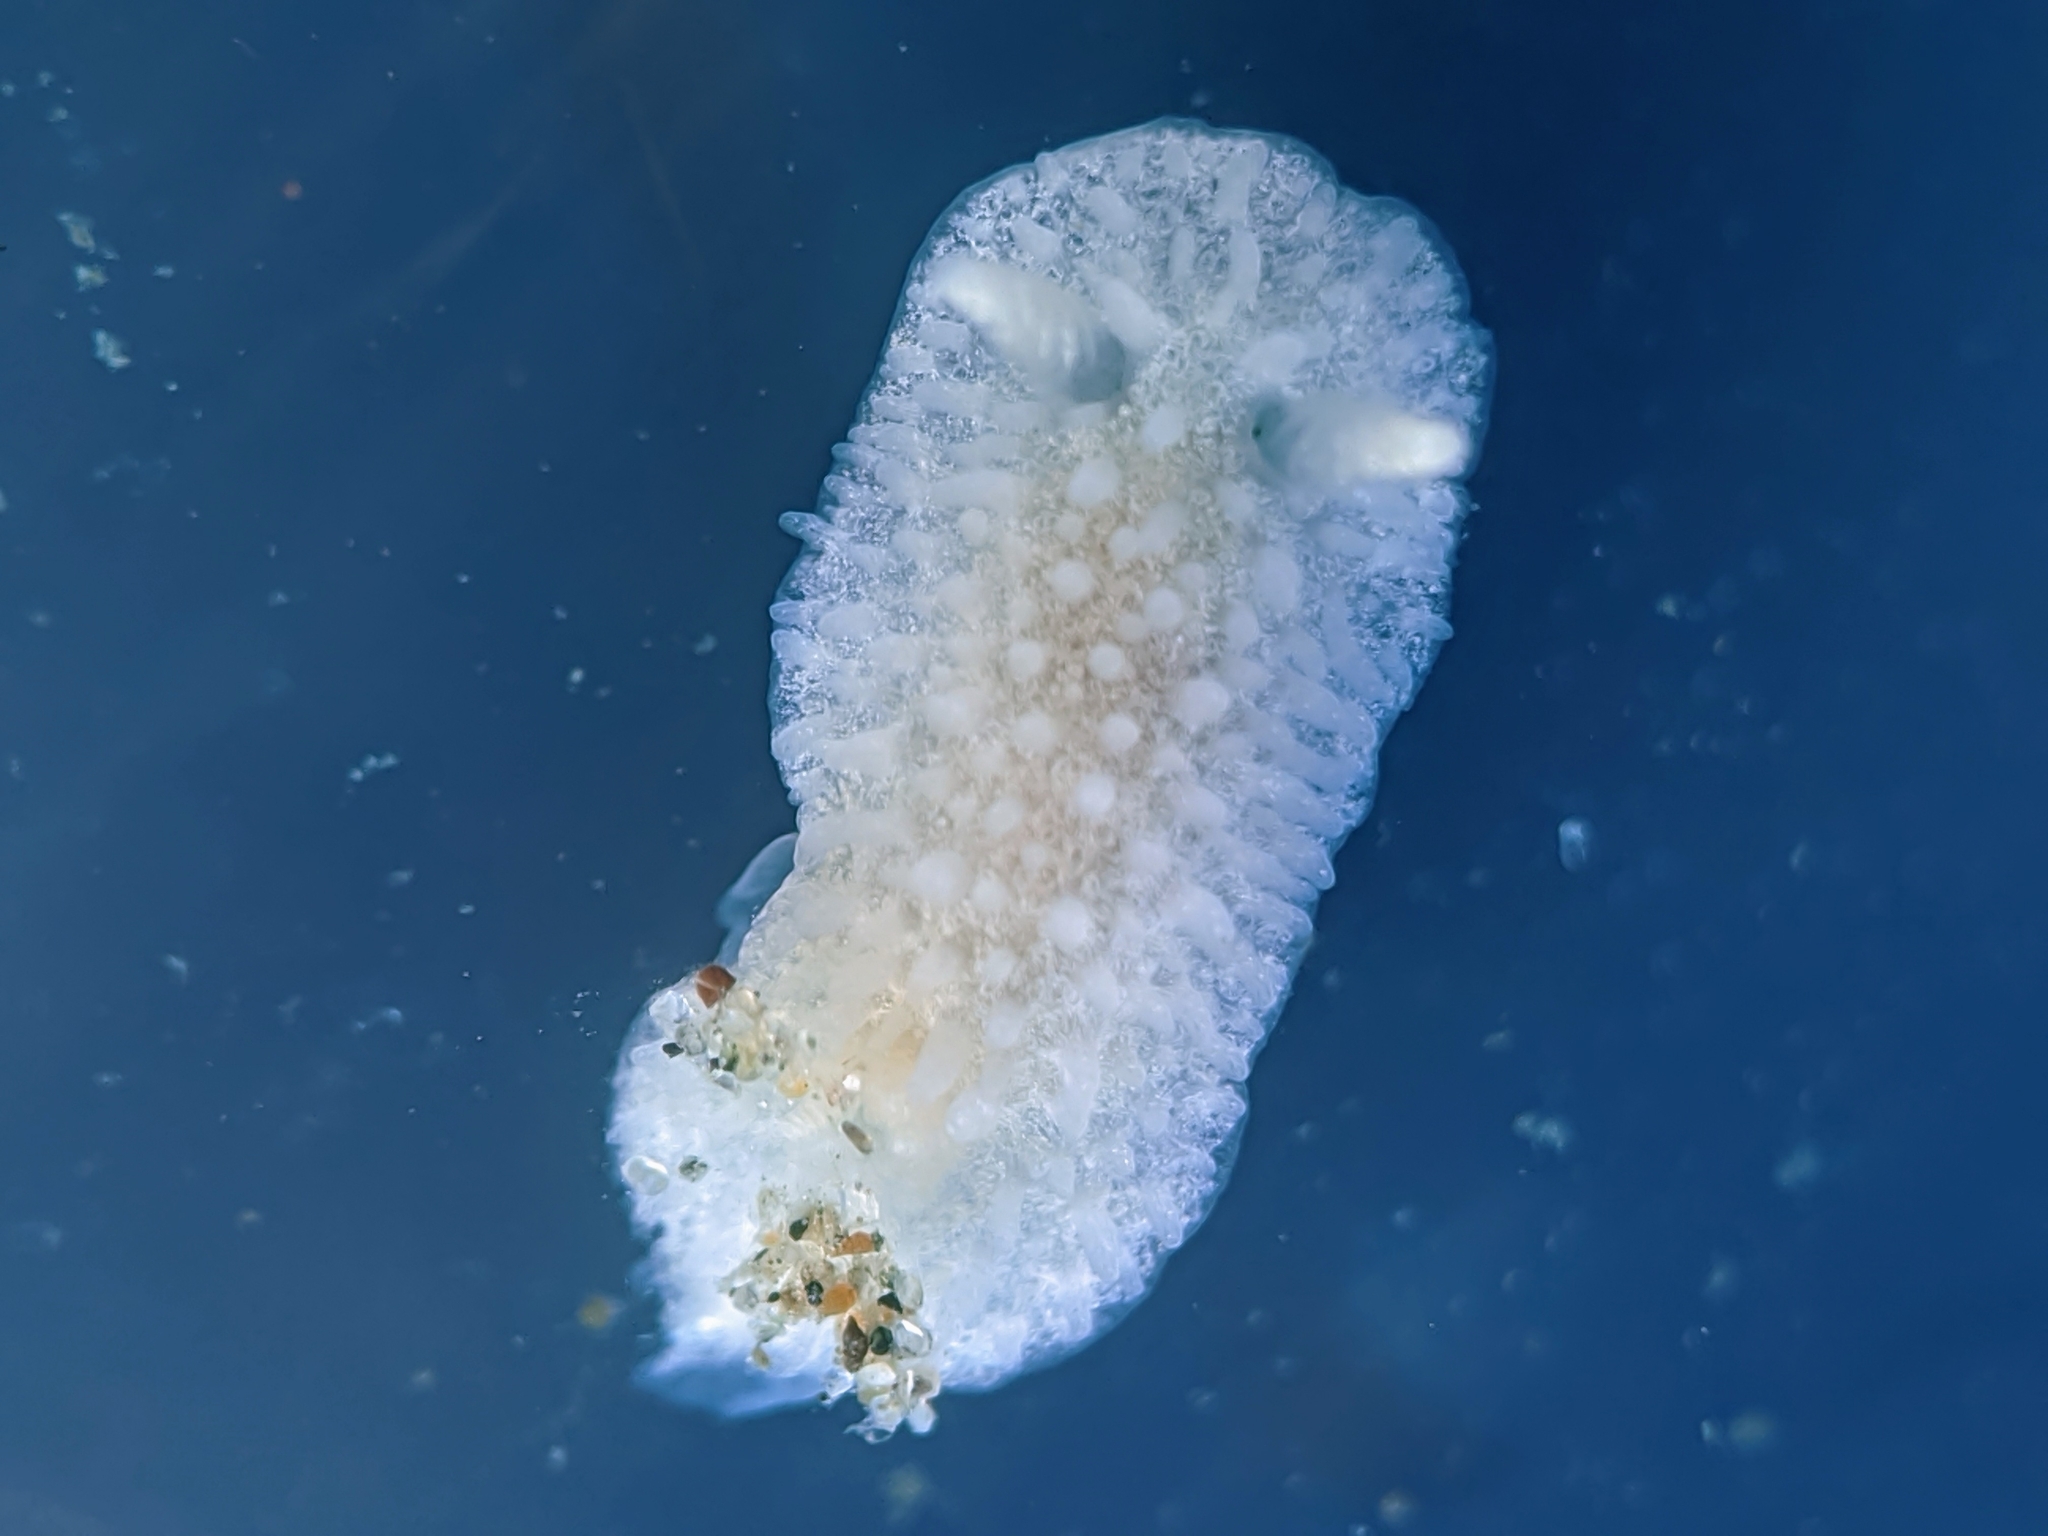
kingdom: Animalia
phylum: Mollusca
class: Gastropoda
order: Nudibranchia
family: Calycidorididae
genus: Diaphorodoris
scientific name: Diaphorodoris lirulatocauda
